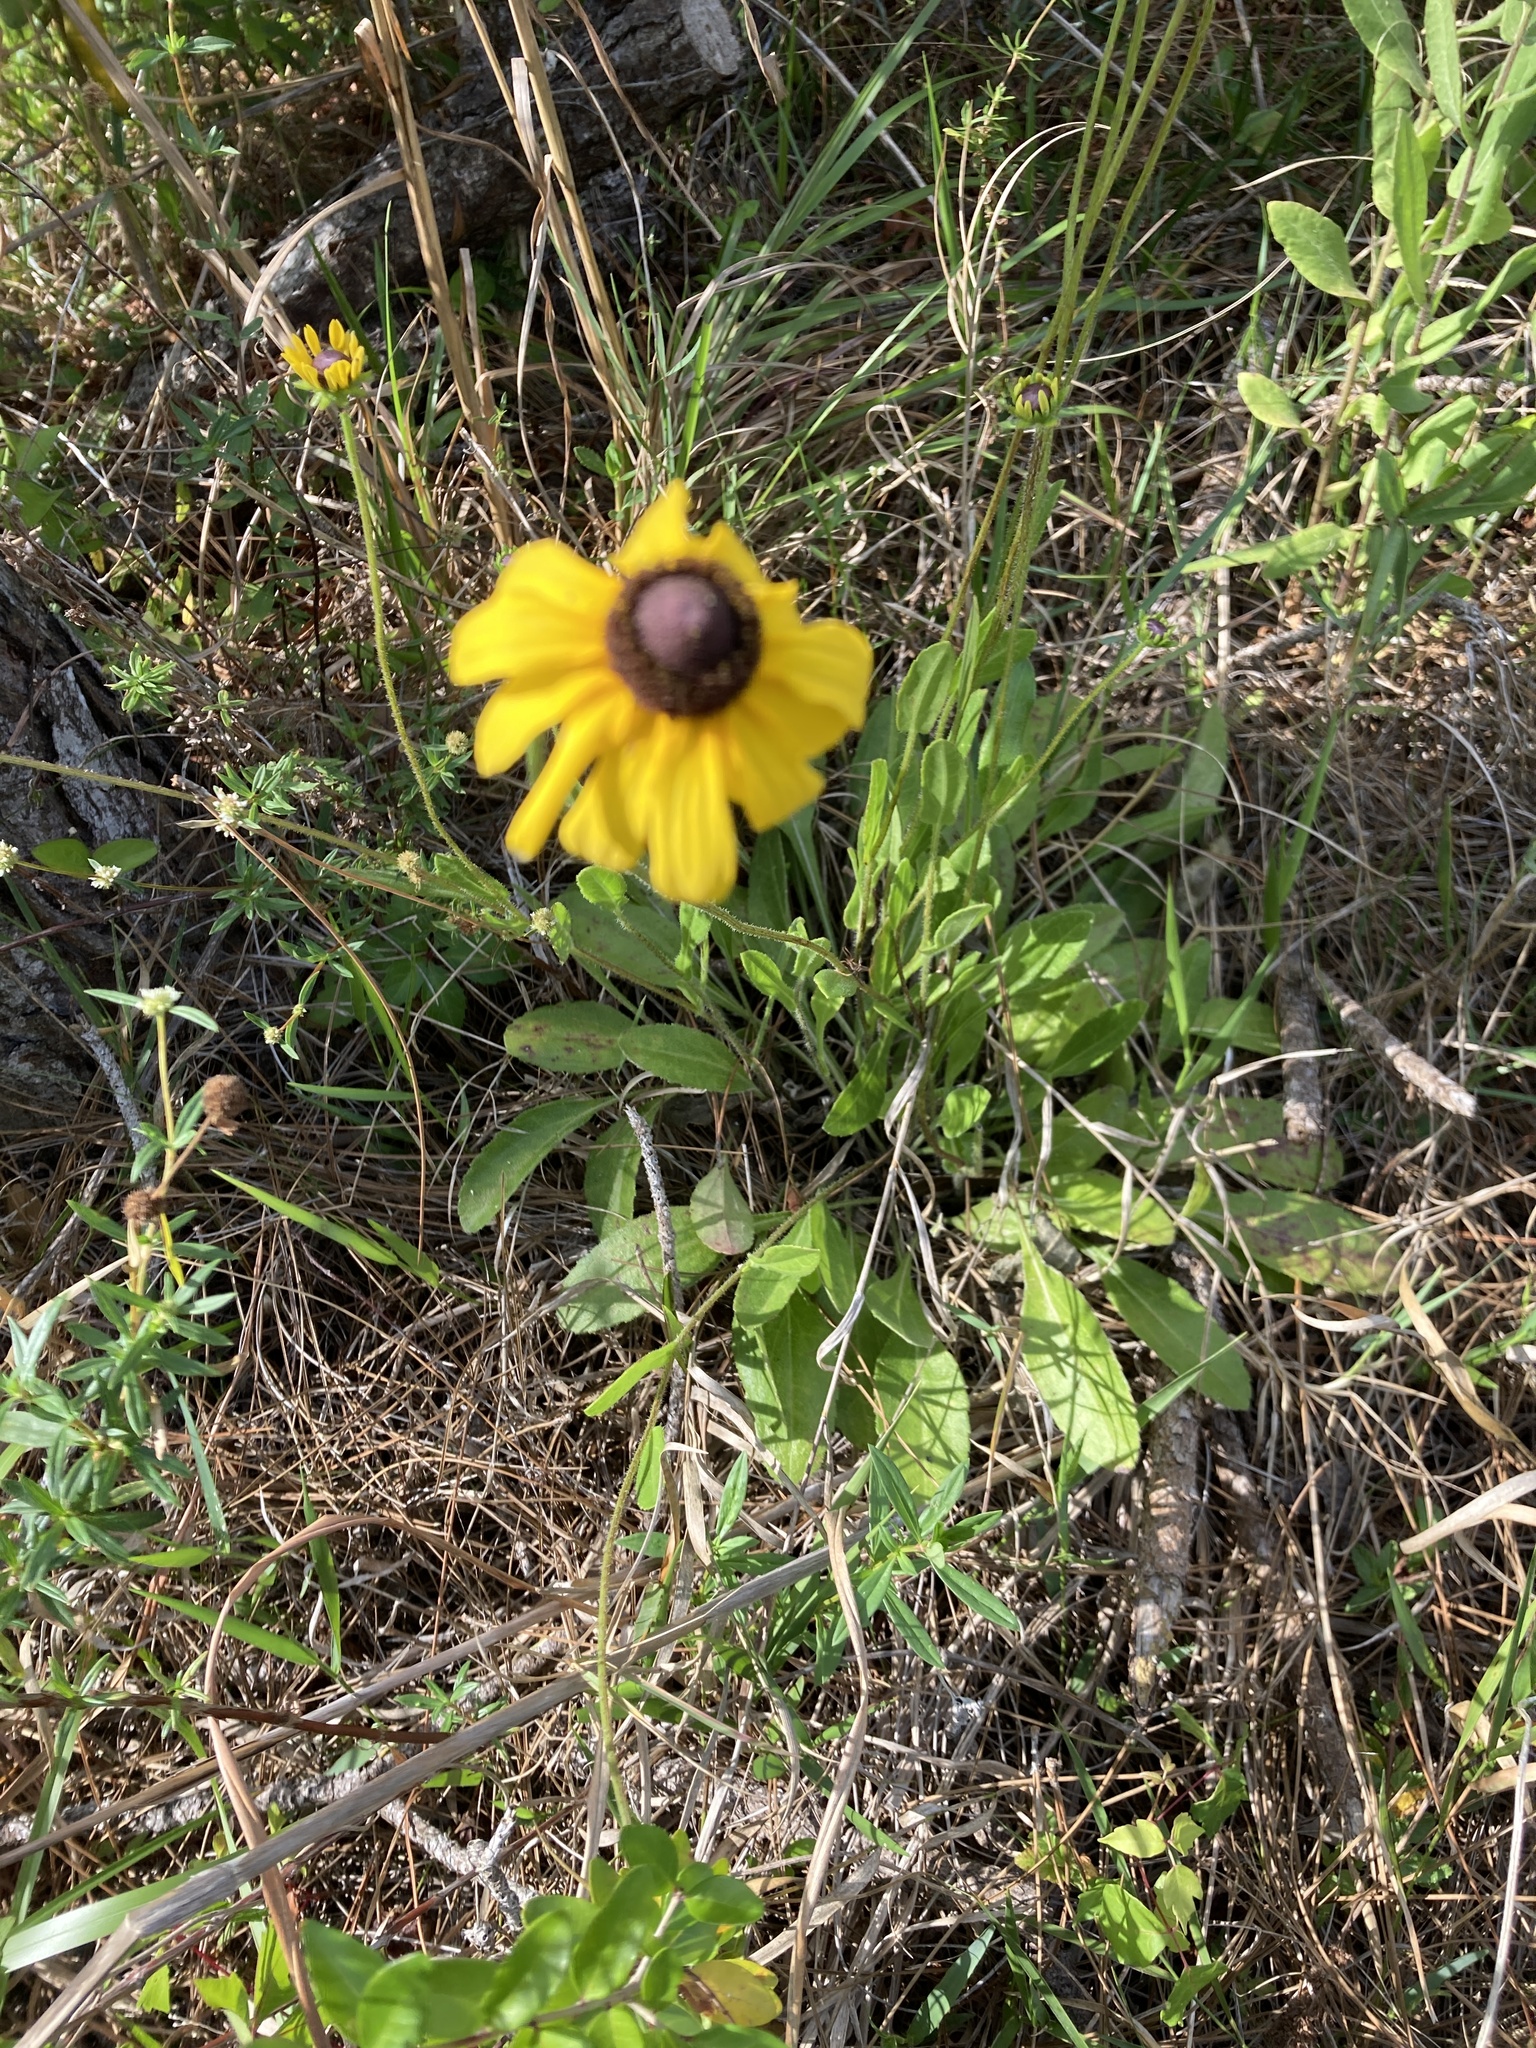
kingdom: Plantae
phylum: Tracheophyta
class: Magnoliopsida
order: Asterales
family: Asteraceae
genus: Rudbeckia
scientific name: Rudbeckia hirta
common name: Black-eyed-susan
